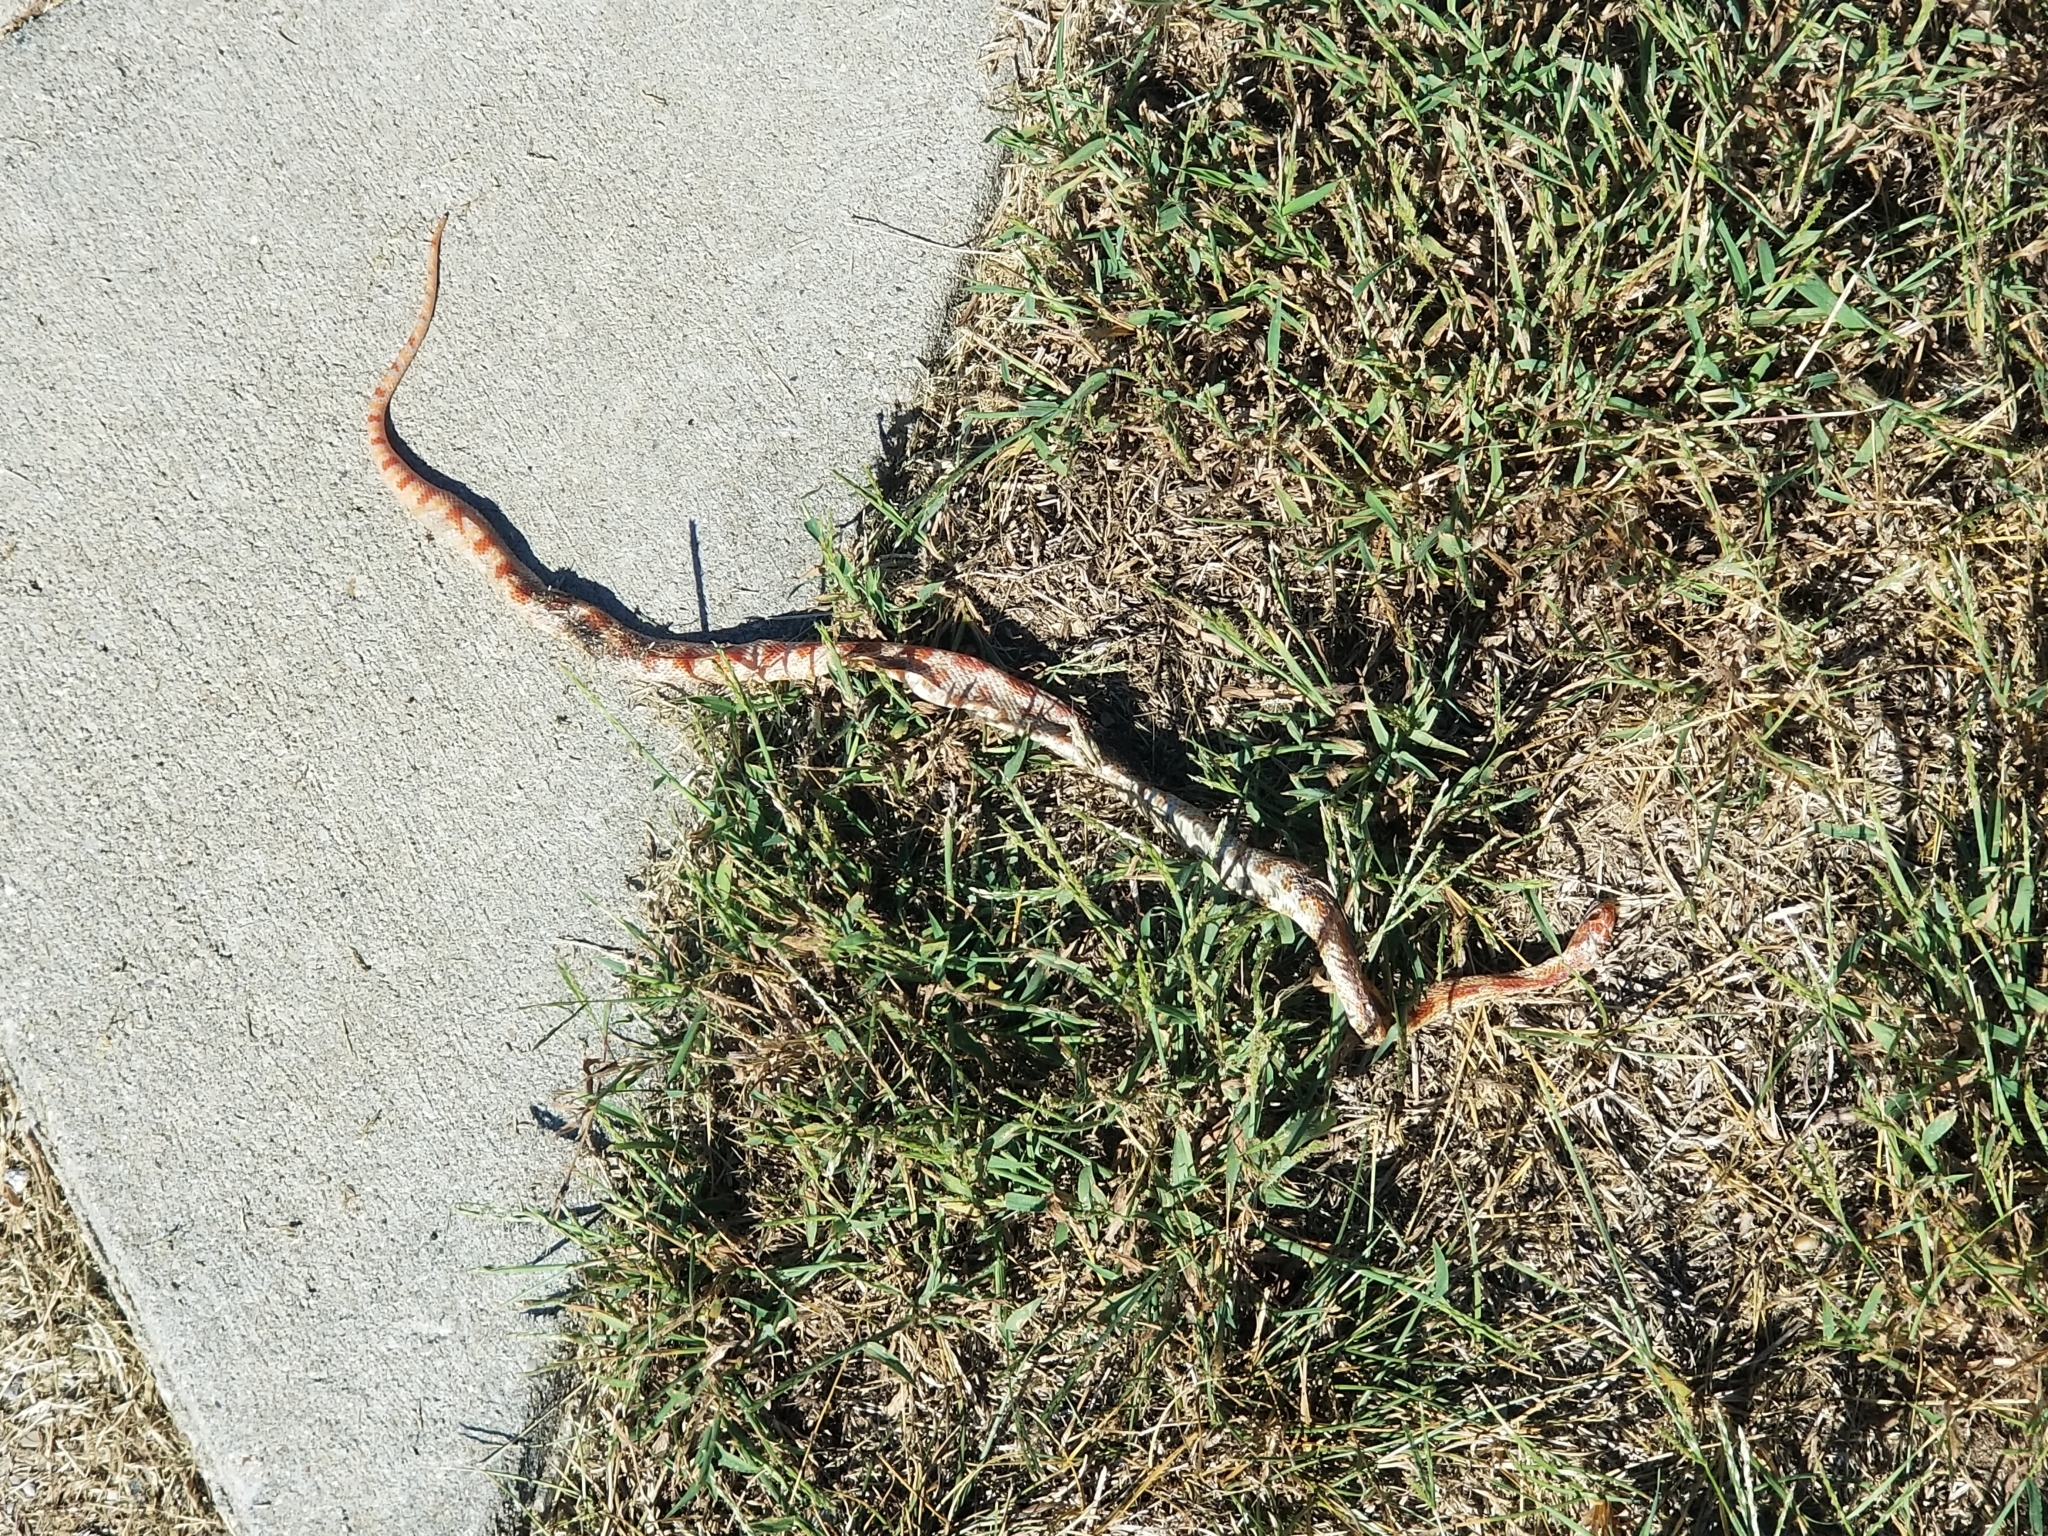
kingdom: Animalia
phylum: Chordata
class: Squamata
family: Colubridae
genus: Pantherophis
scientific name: Pantherophis guttatus
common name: Red cornsnake
